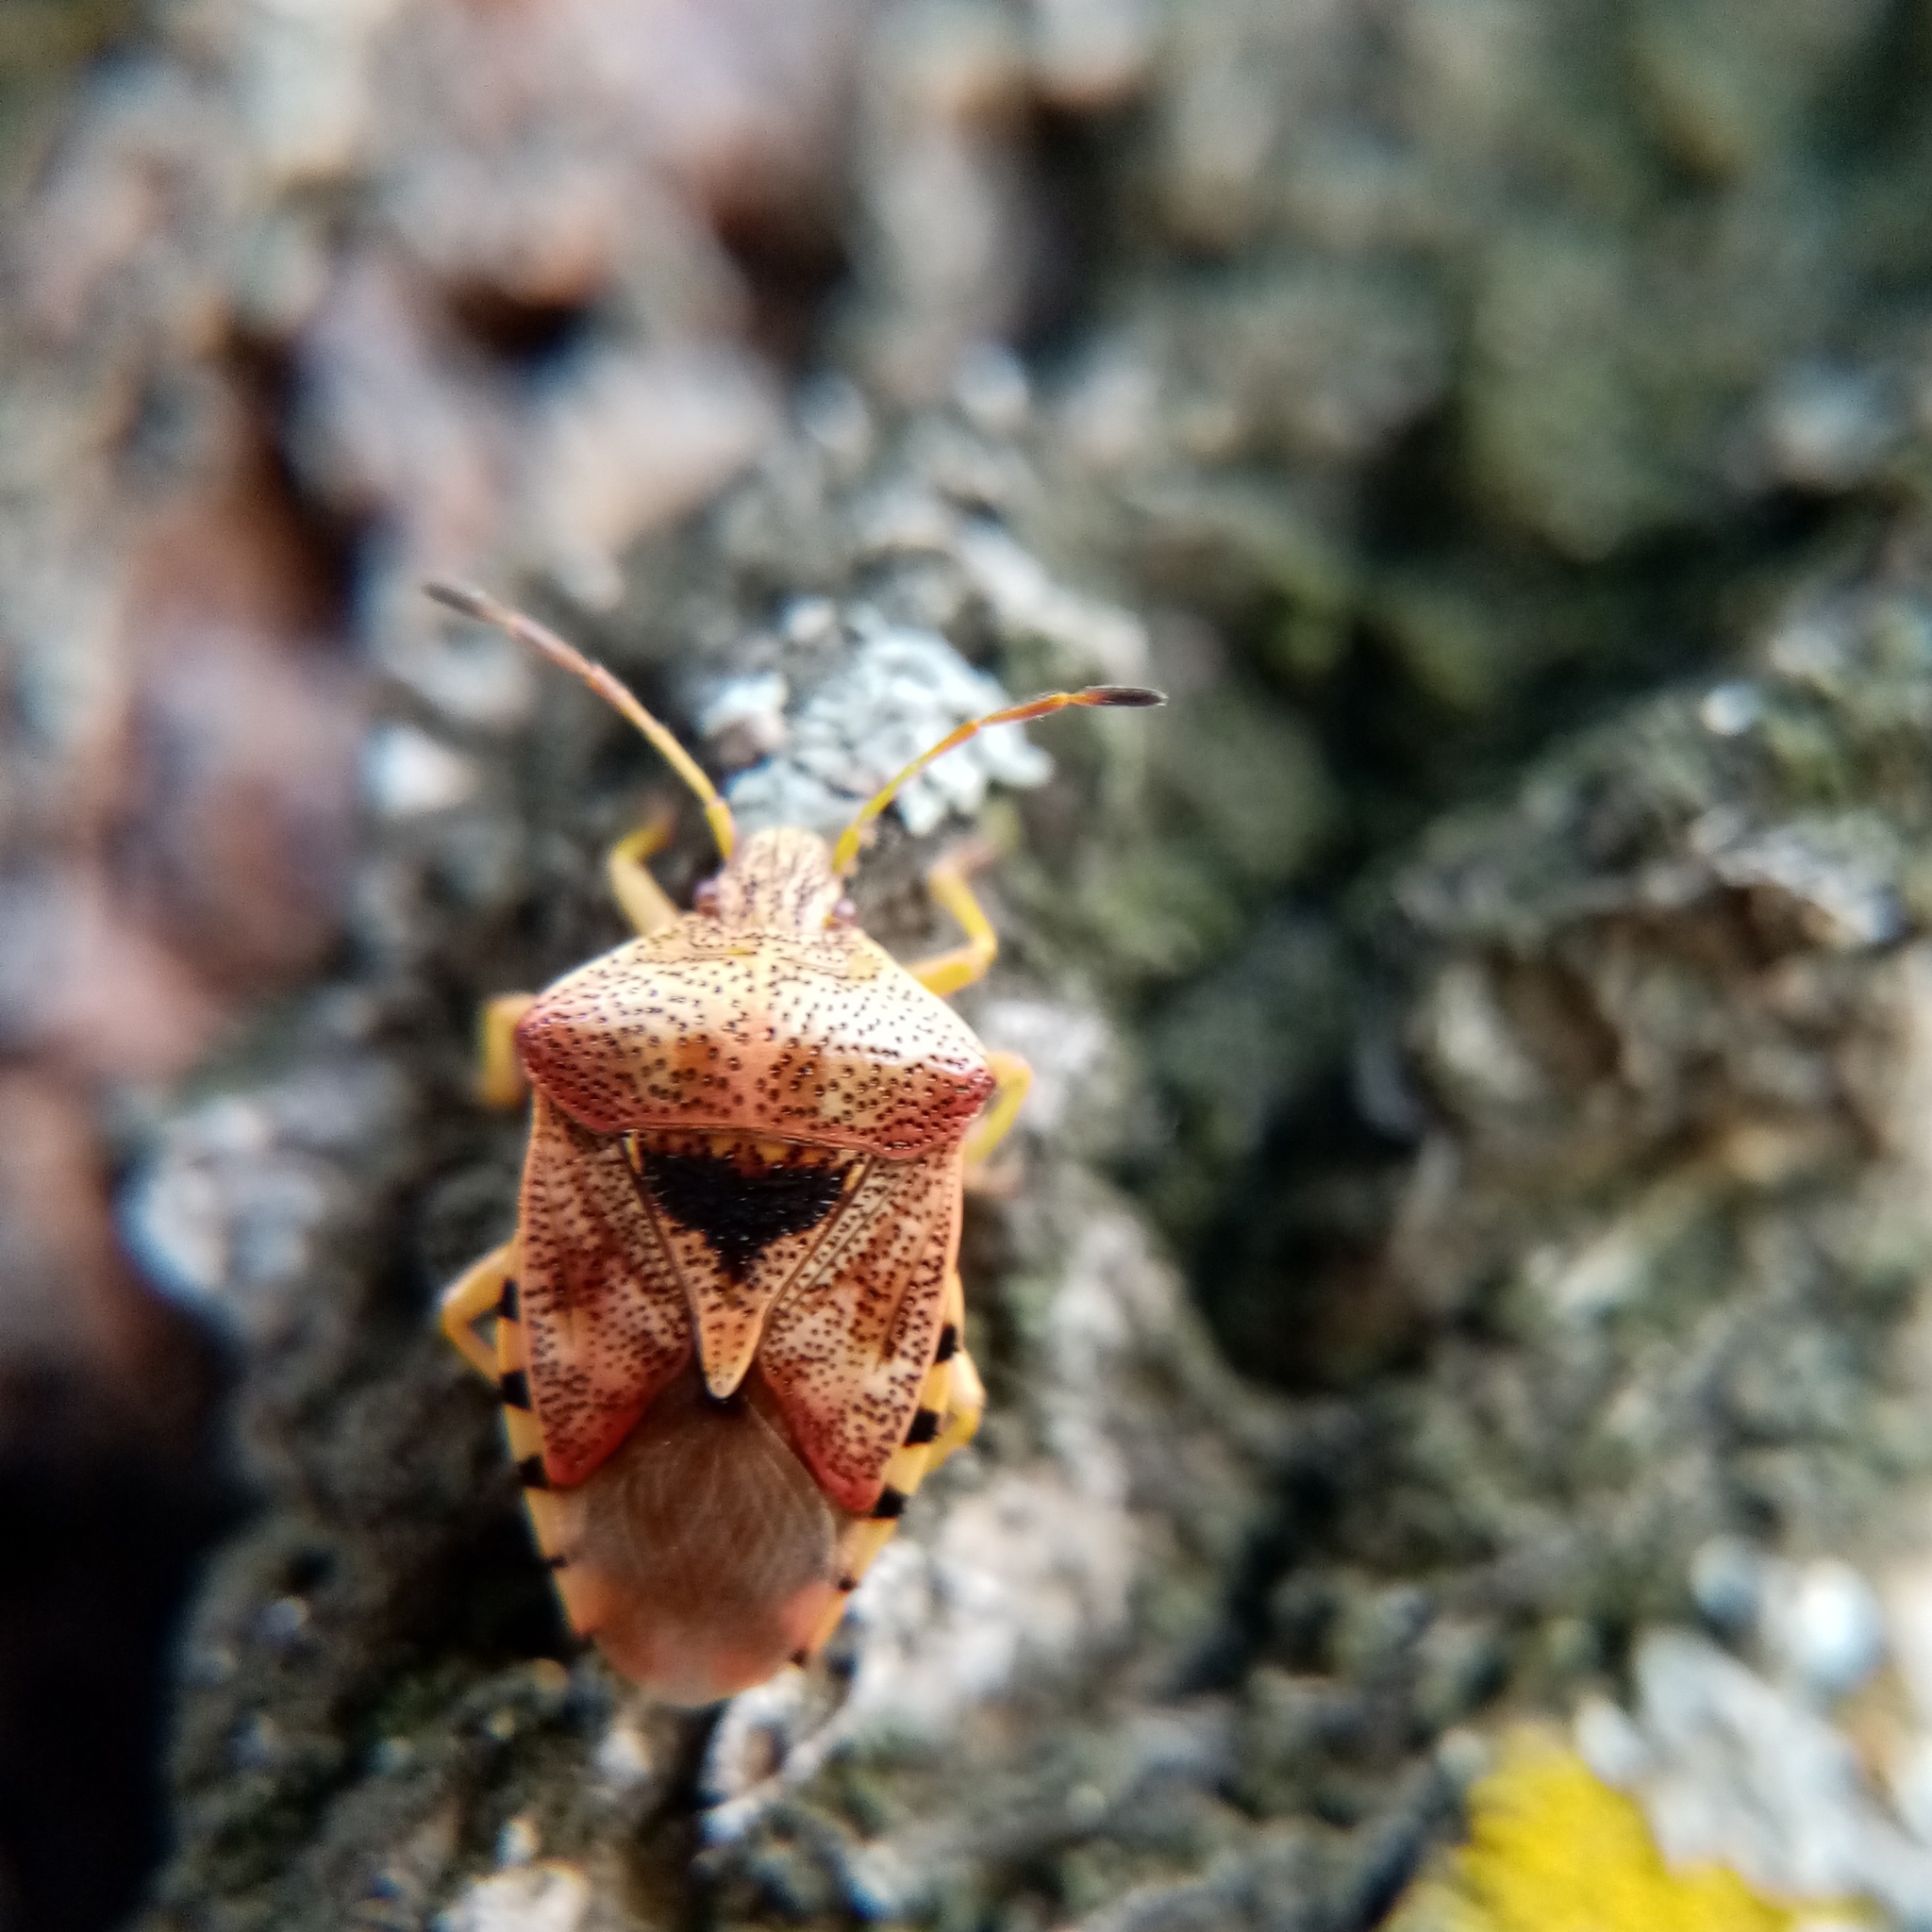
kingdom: Animalia
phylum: Arthropoda
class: Insecta
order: Hemiptera
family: Acanthosomatidae
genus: Elasmucha
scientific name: Elasmucha grisea
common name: Parent bug
